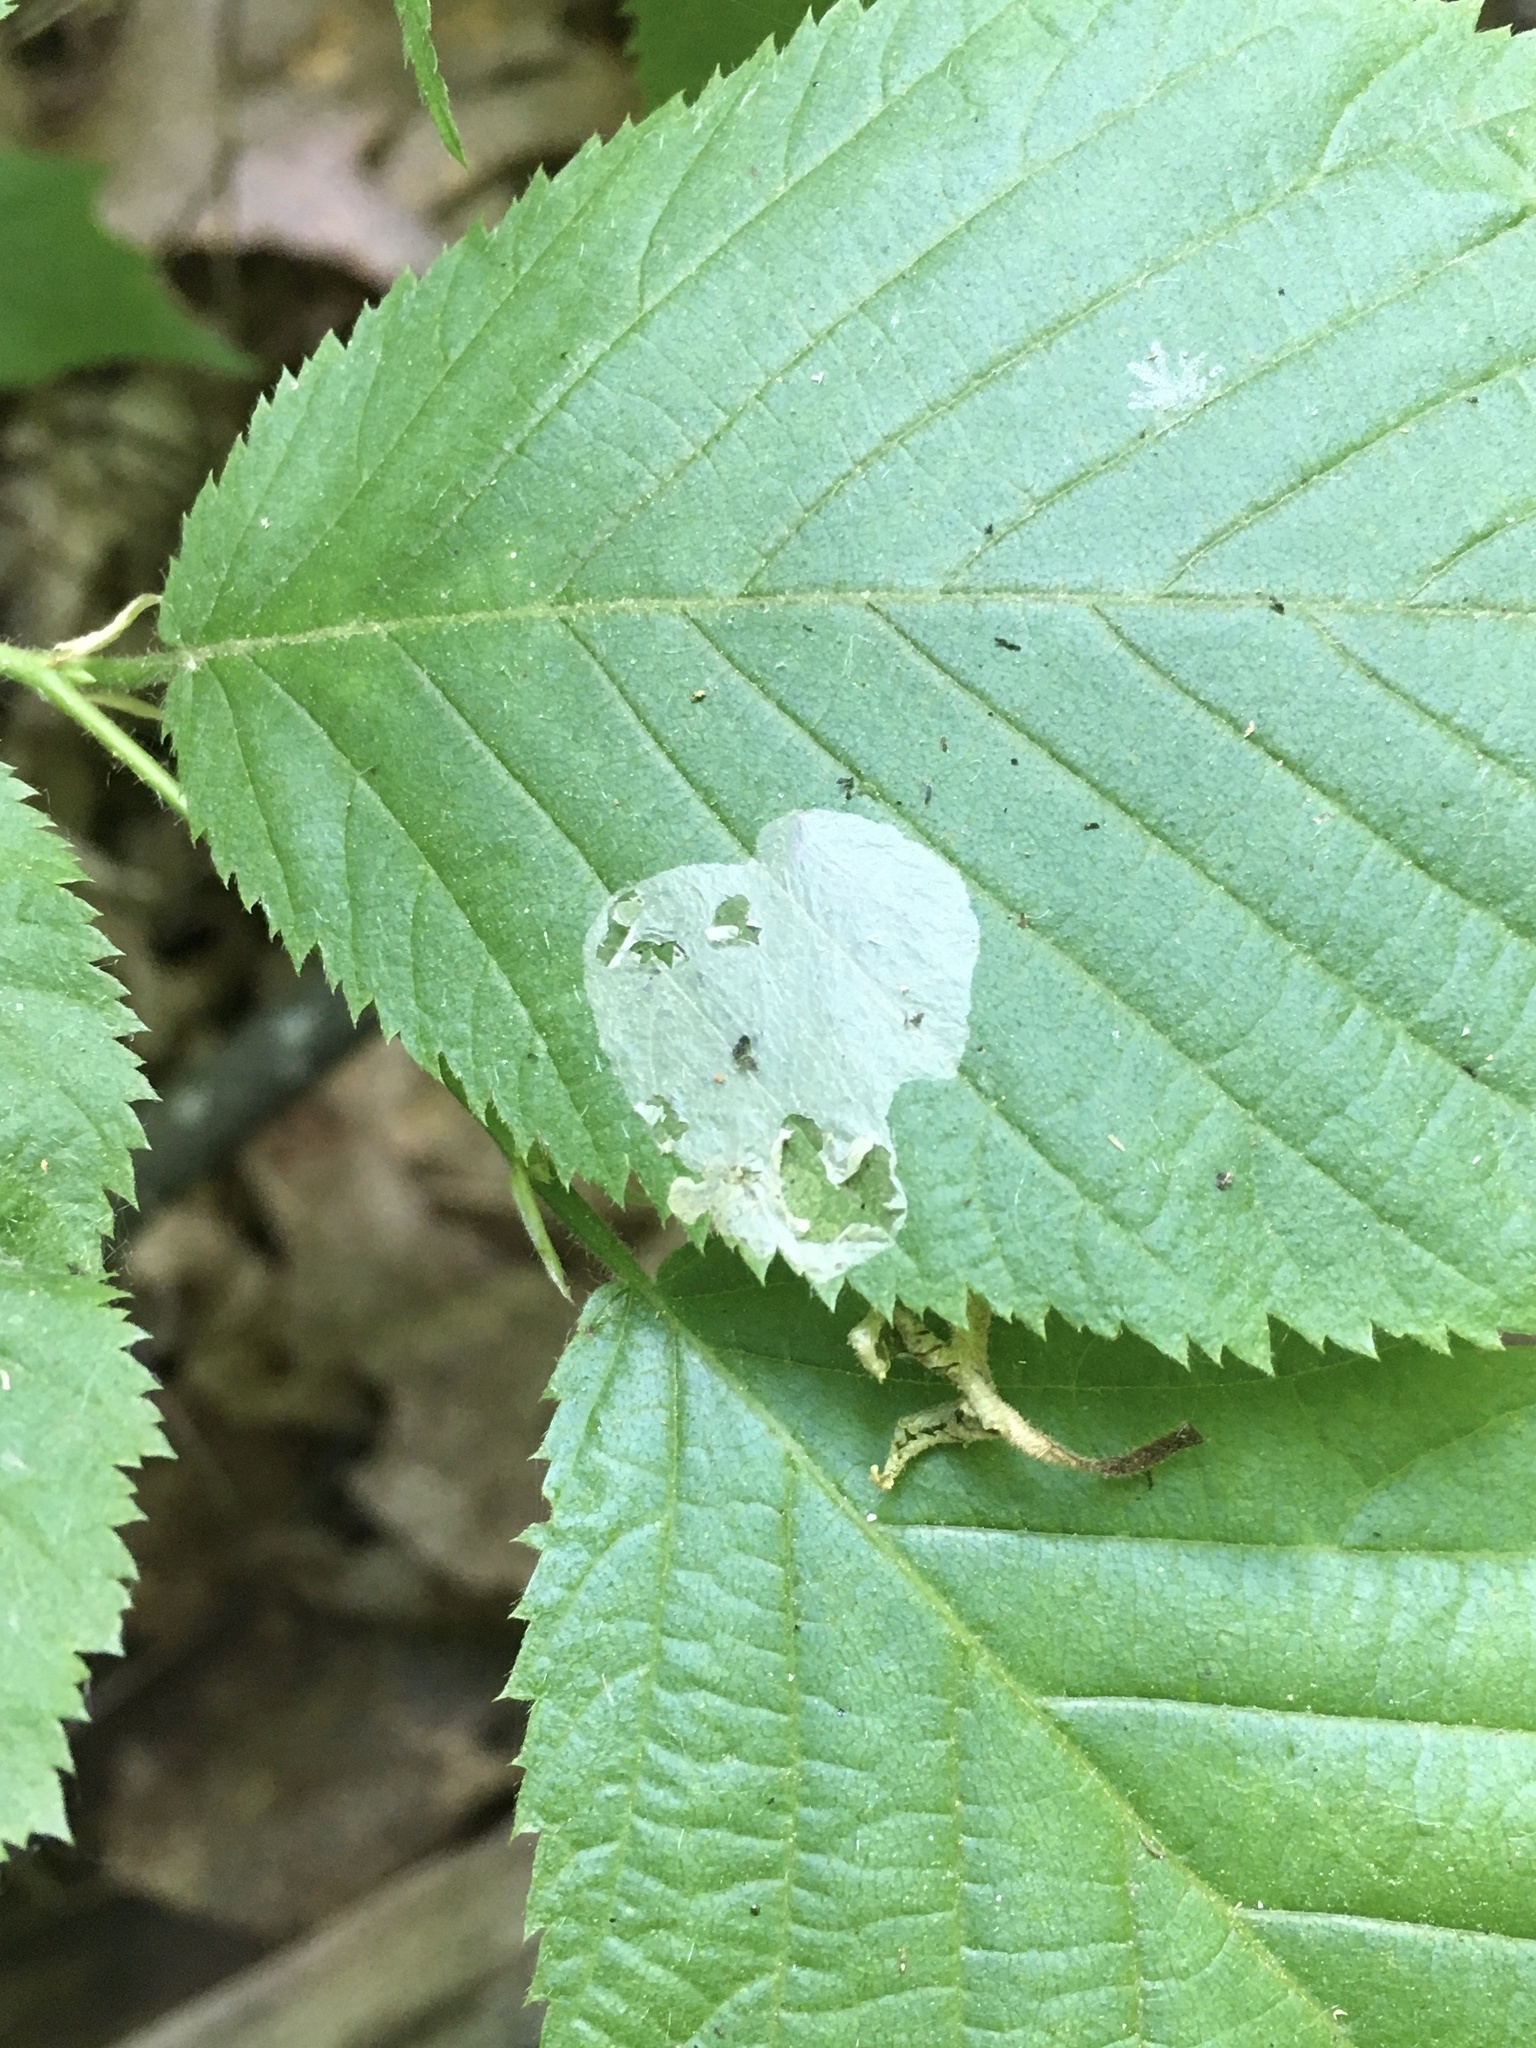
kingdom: Animalia
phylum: Arthropoda
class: Insecta
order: Lepidoptera
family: Gracillariidae
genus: Phyllonorycter
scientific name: Phyllonorycter tritaenianella
